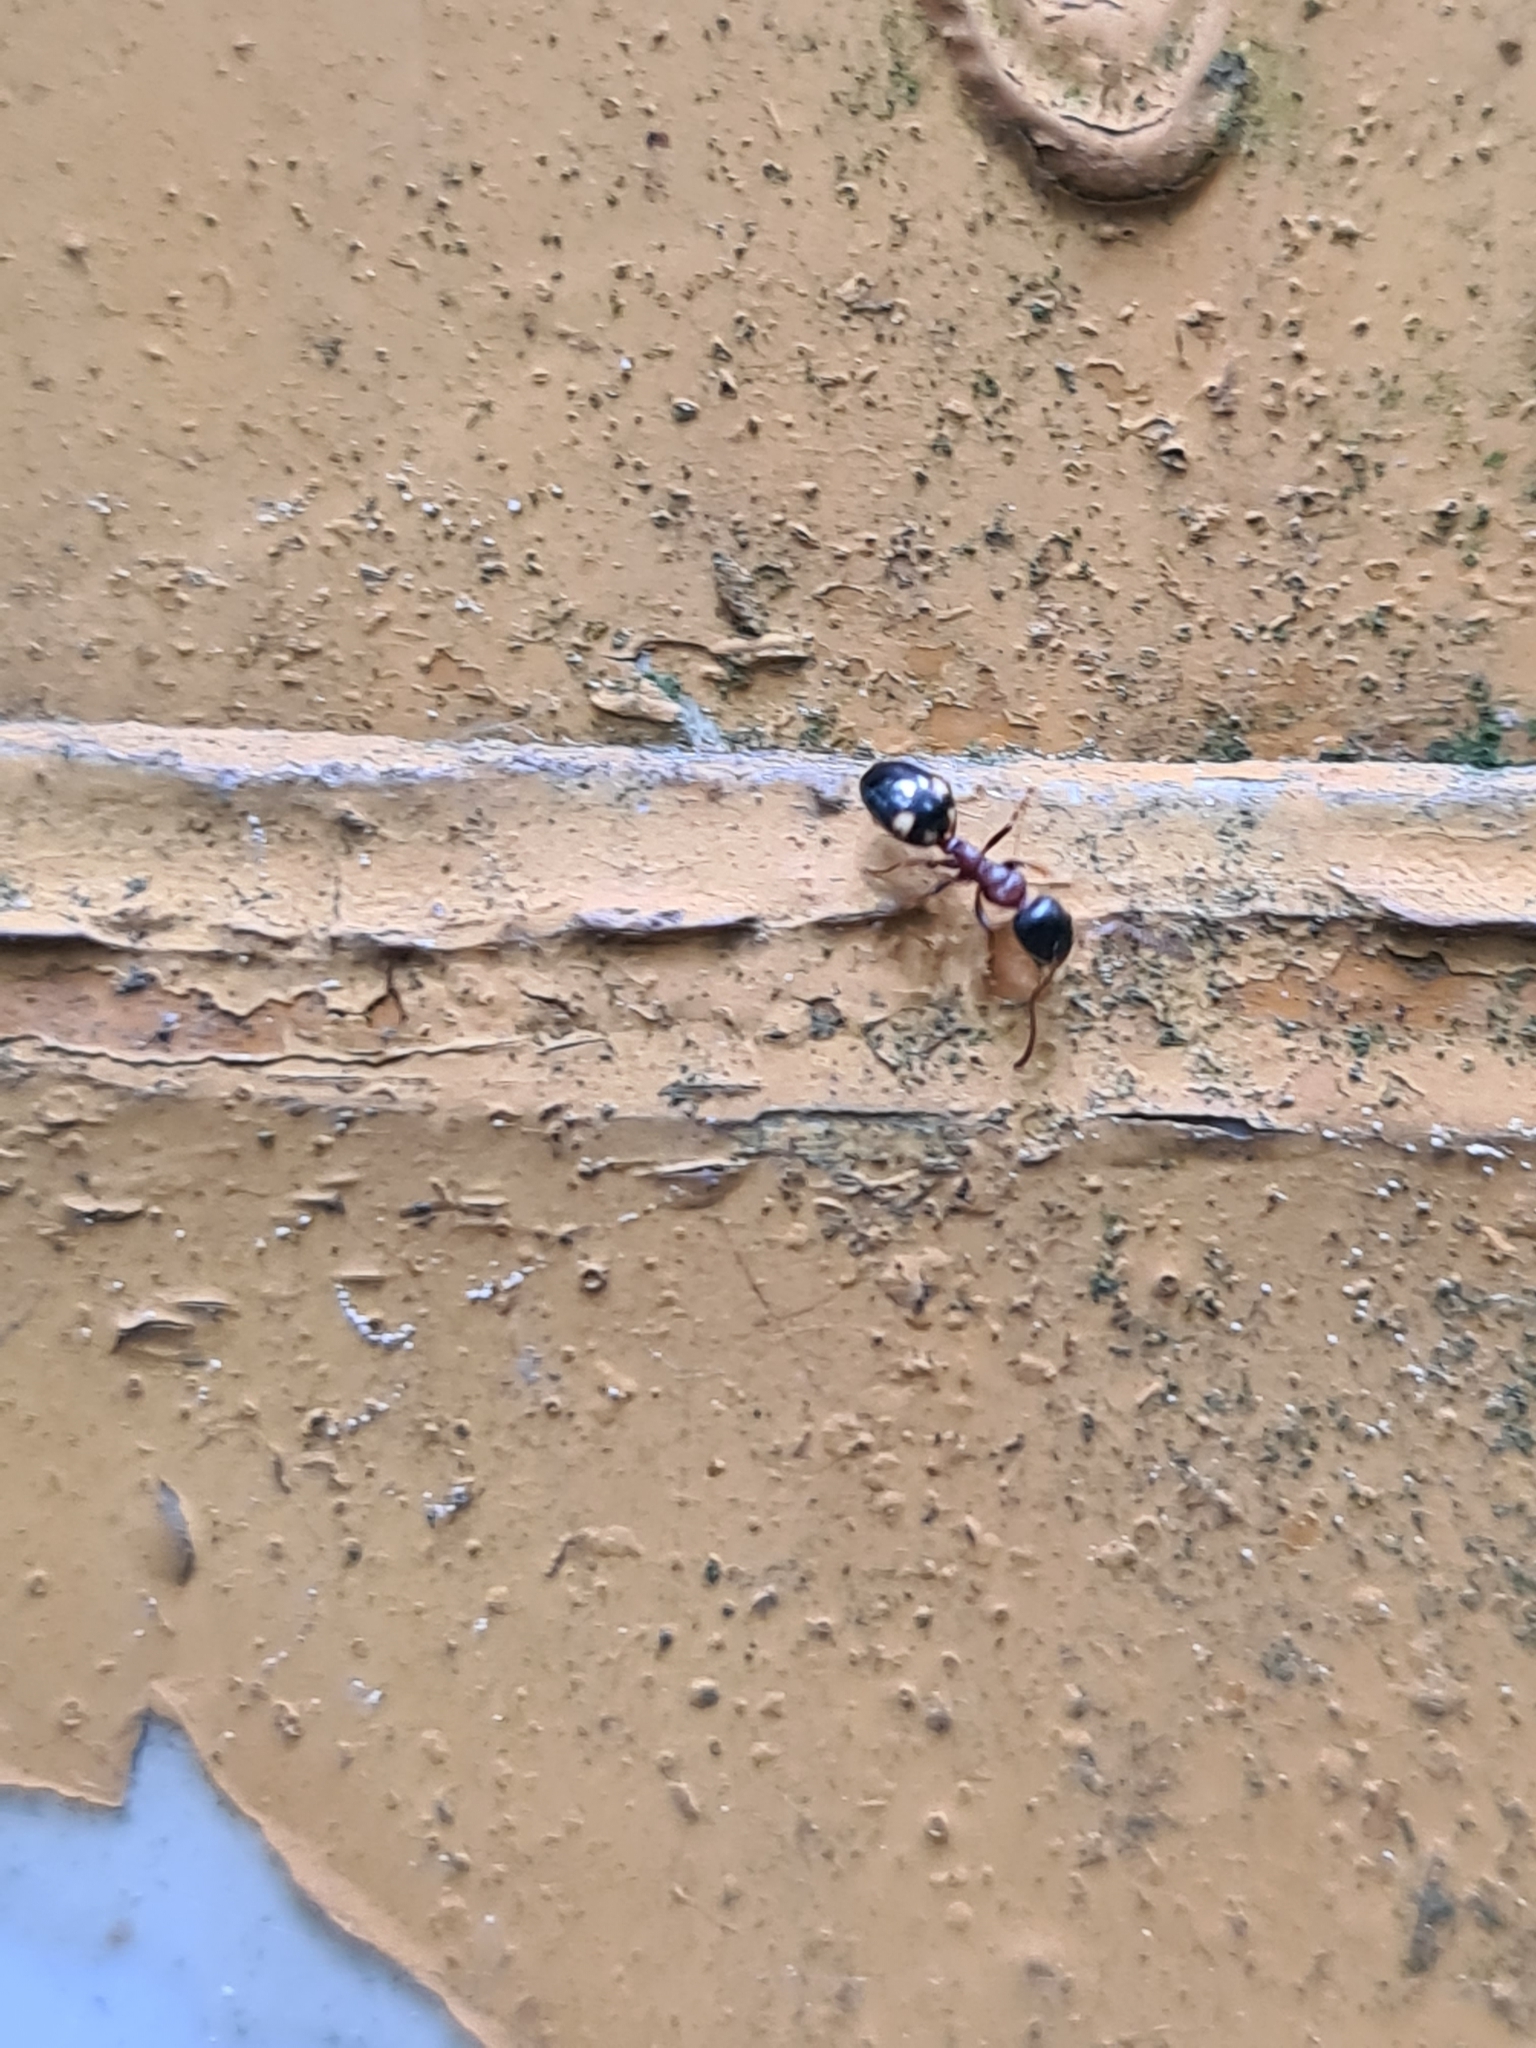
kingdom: Animalia
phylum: Arthropoda
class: Insecta
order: Hymenoptera
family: Formicidae
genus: Dolichoderus
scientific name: Dolichoderus quadripunctatus
